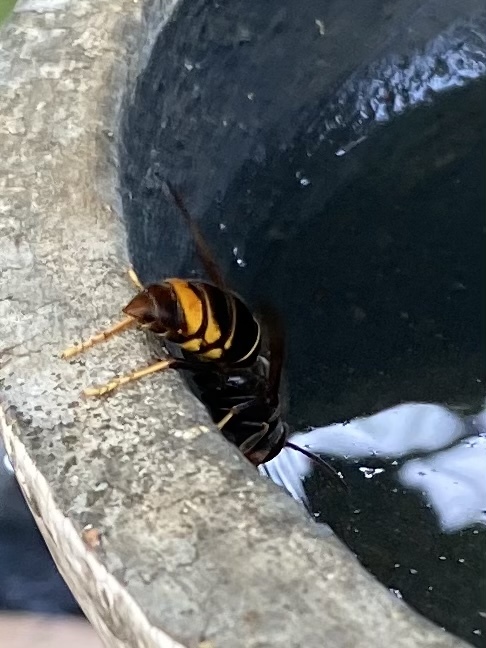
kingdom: Animalia
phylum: Arthropoda
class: Insecta
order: Hymenoptera
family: Vespidae
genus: Vespa
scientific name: Vespa velutina
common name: Asian hornet
